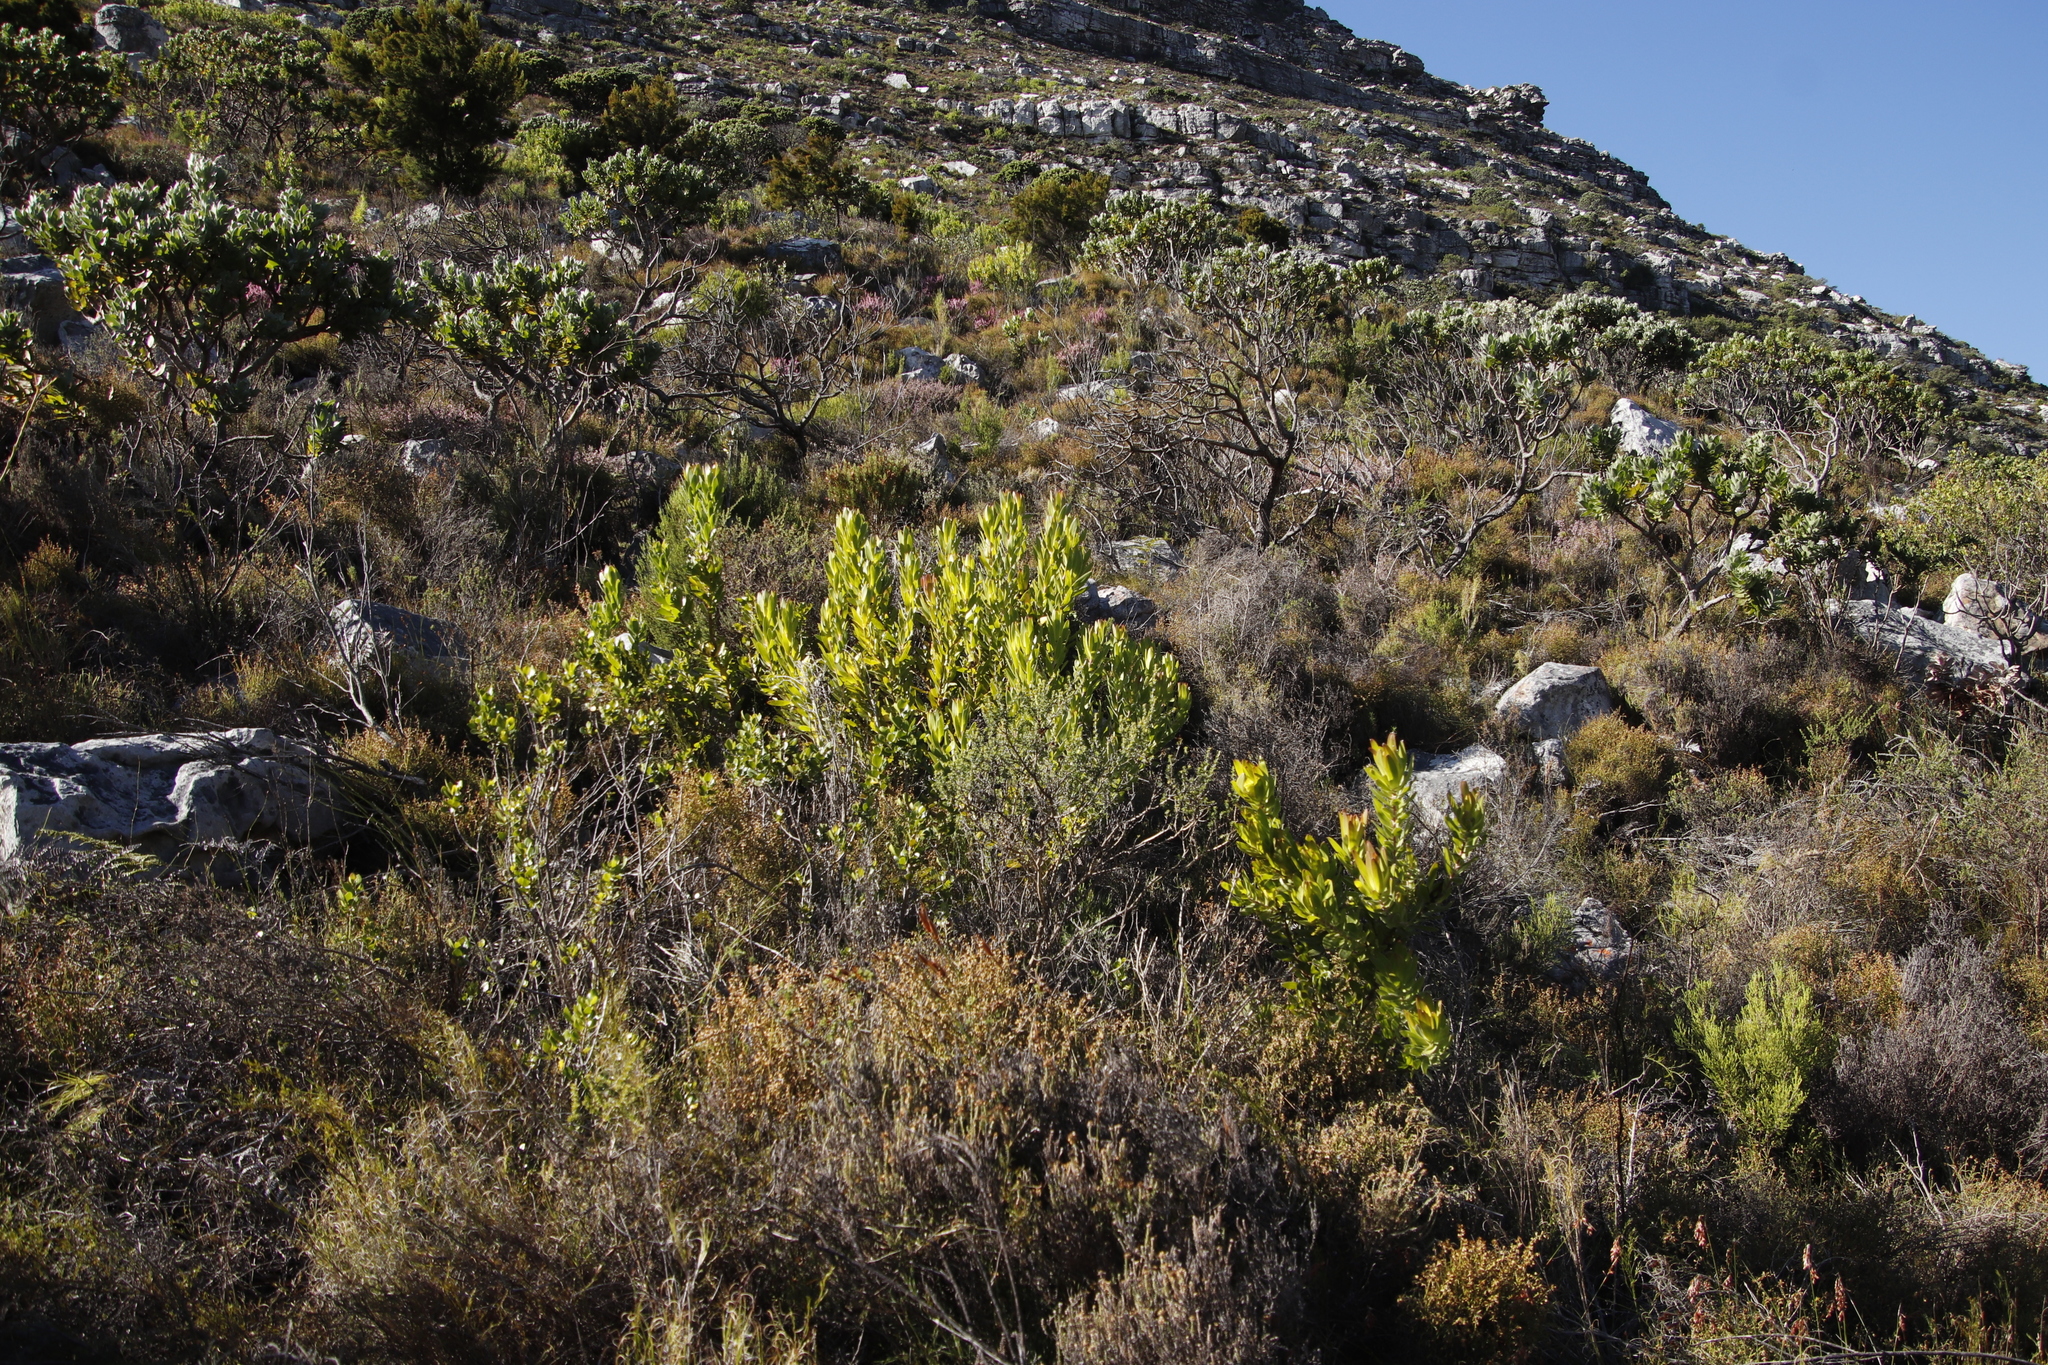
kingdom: Plantae
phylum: Tracheophyta
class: Magnoliopsida
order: Proteales
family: Proteaceae
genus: Leucadendron
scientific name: Leucadendron laureolum
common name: Golden sunshinebush
